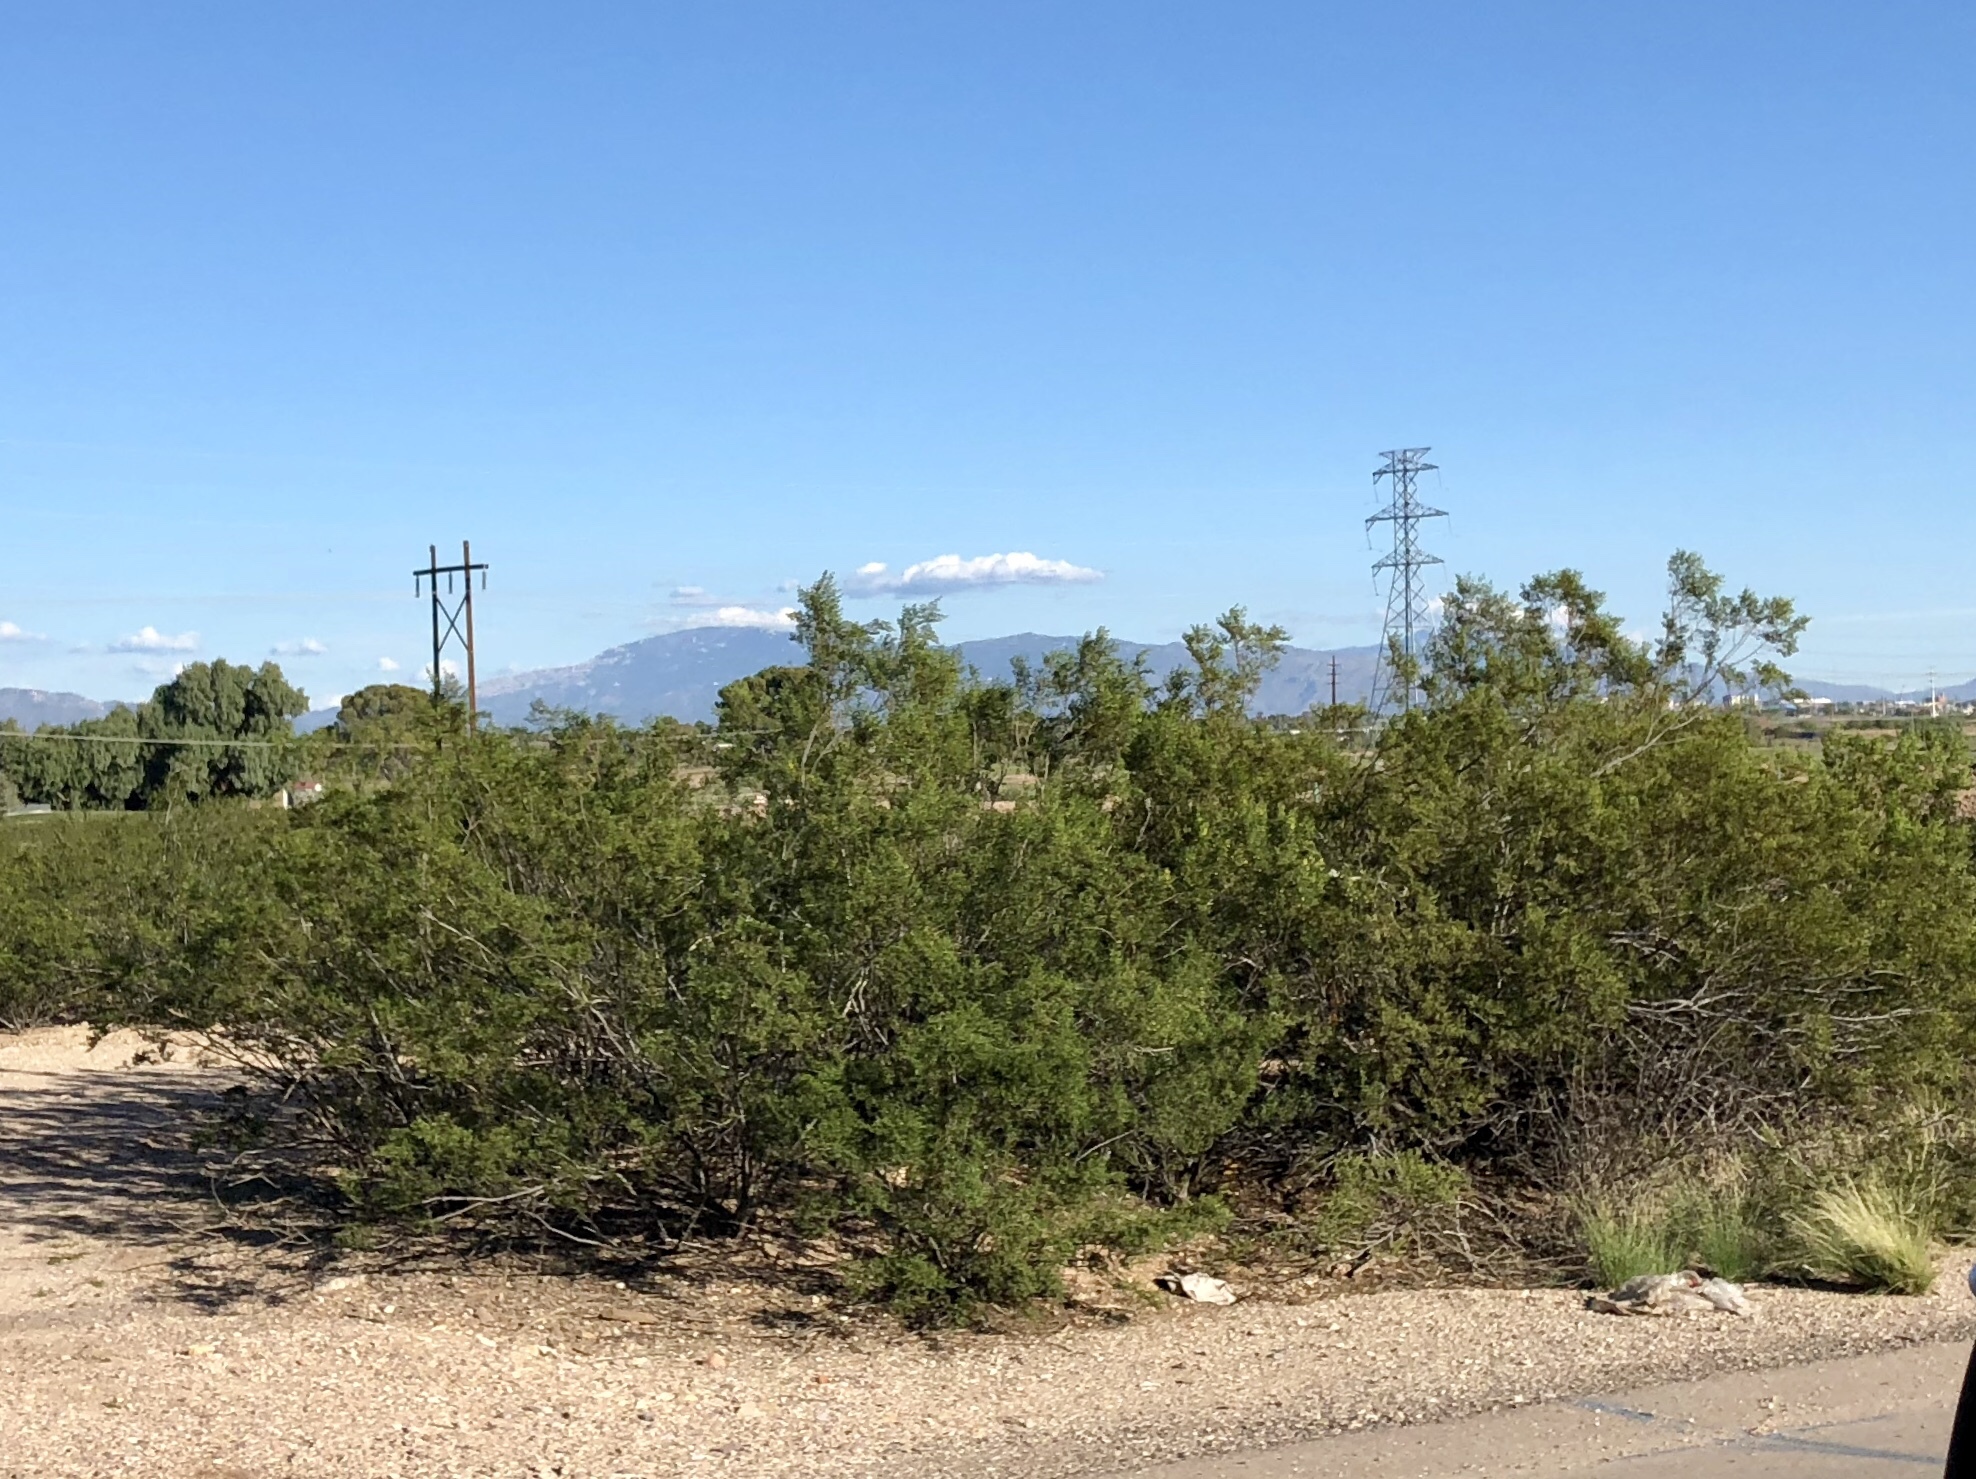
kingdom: Plantae
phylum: Tracheophyta
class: Magnoliopsida
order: Zygophyllales
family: Zygophyllaceae
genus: Larrea
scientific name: Larrea tridentata
